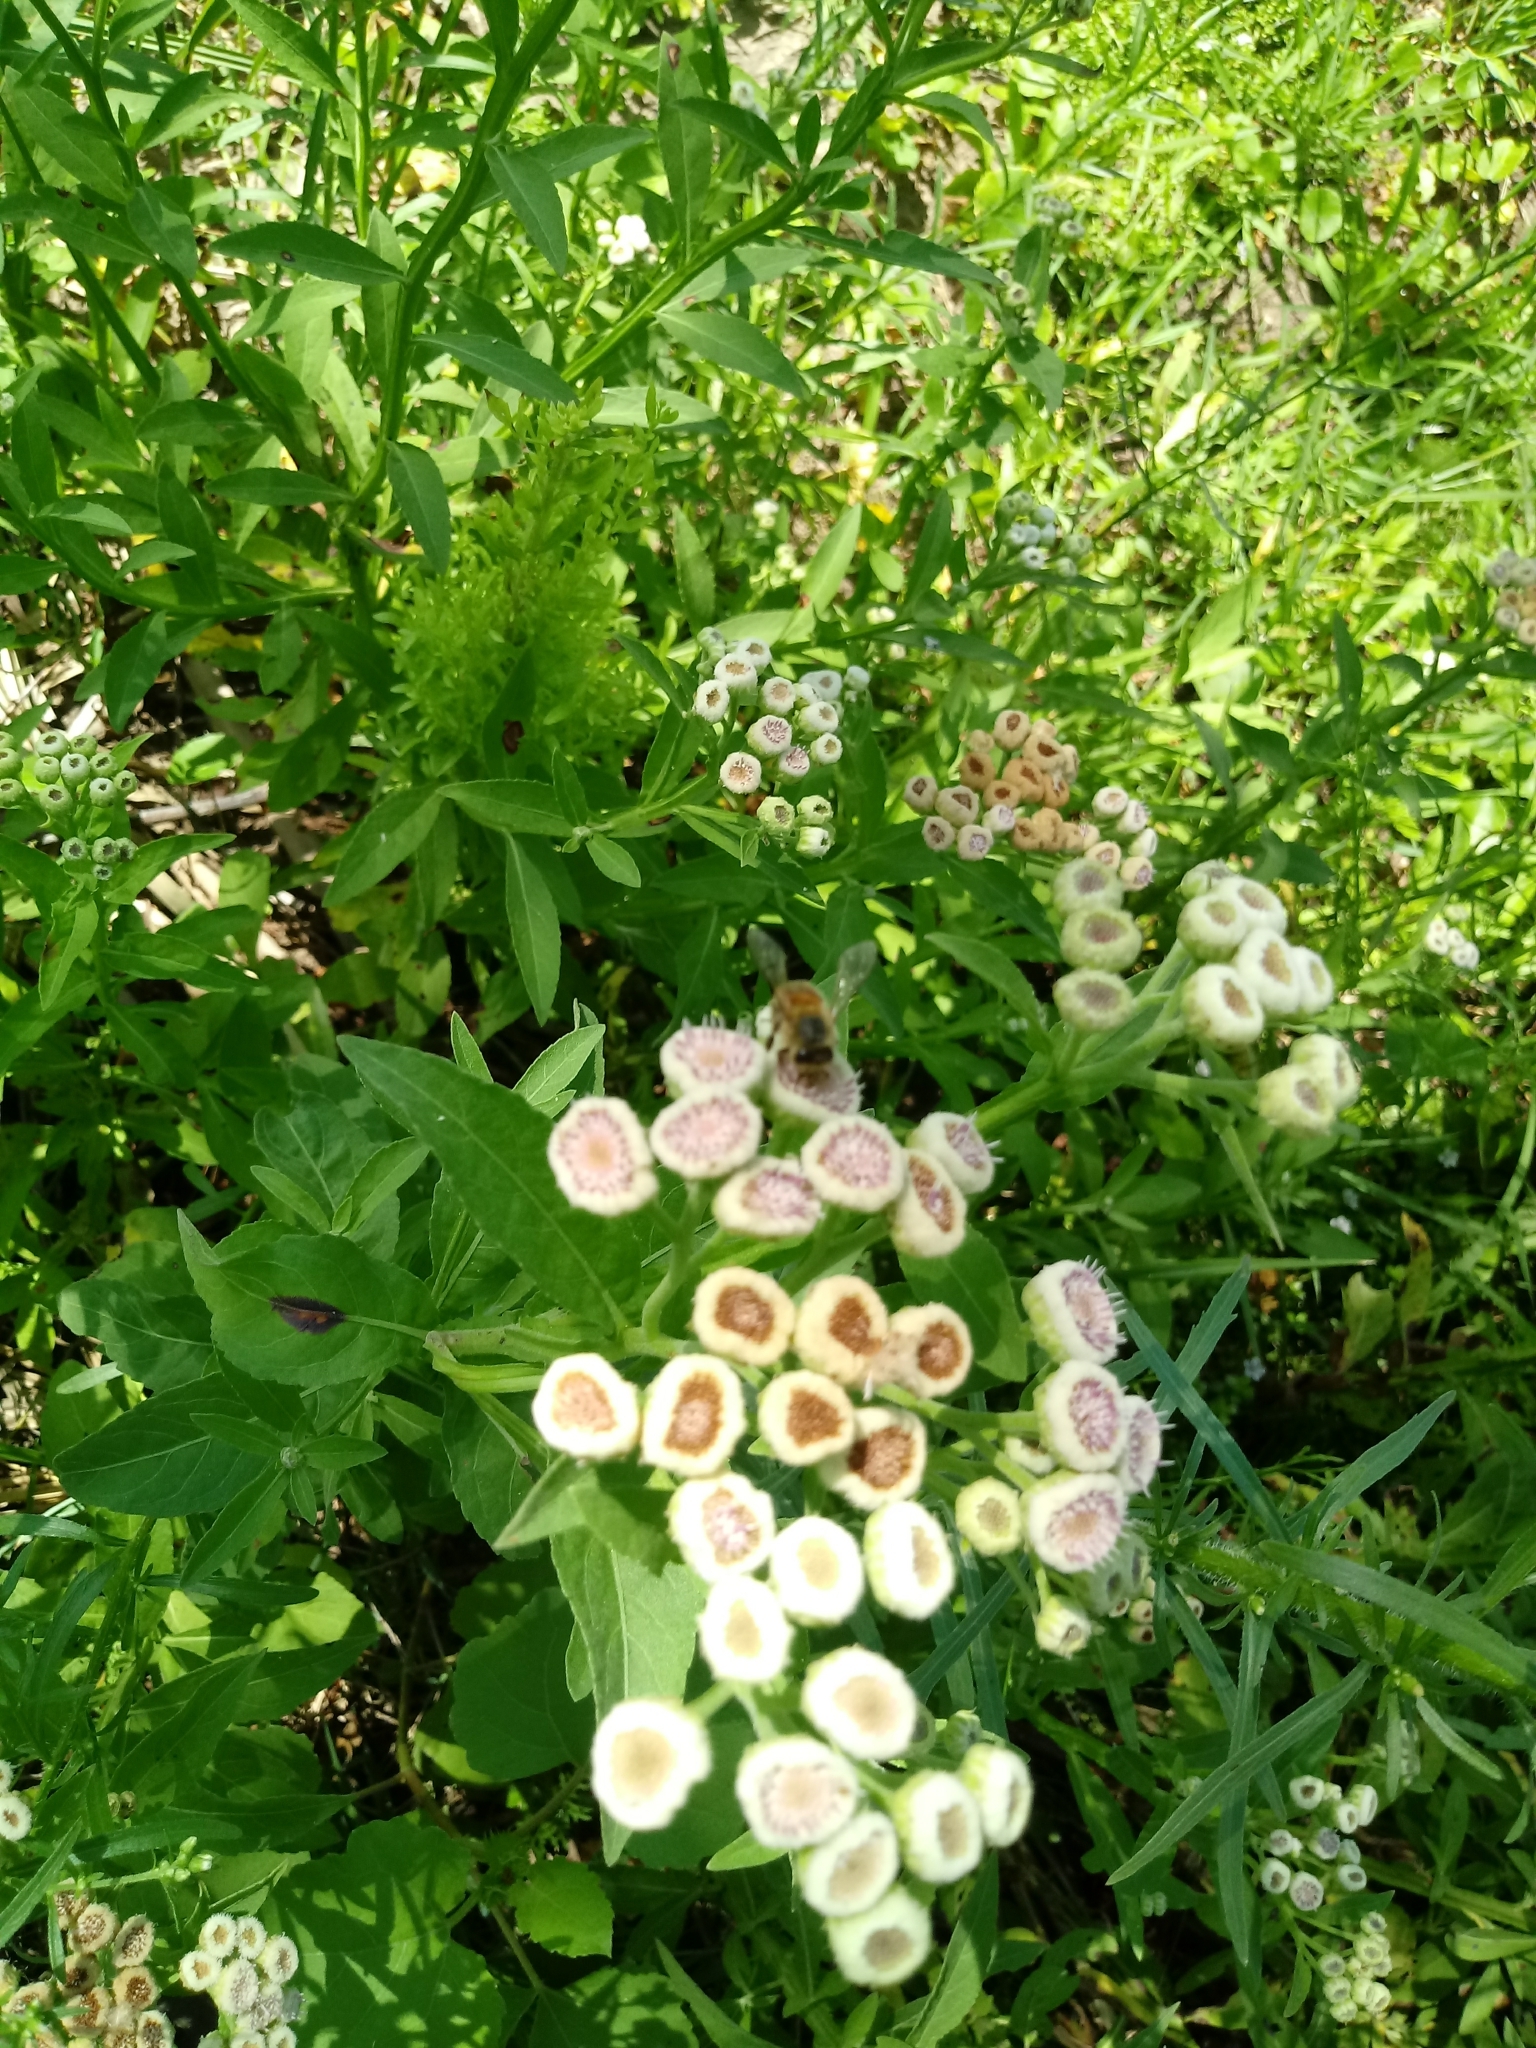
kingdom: Plantae
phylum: Tracheophyta
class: Magnoliopsida
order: Asterales
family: Asteraceae
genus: Pluchea
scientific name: Pluchea sagittalis
